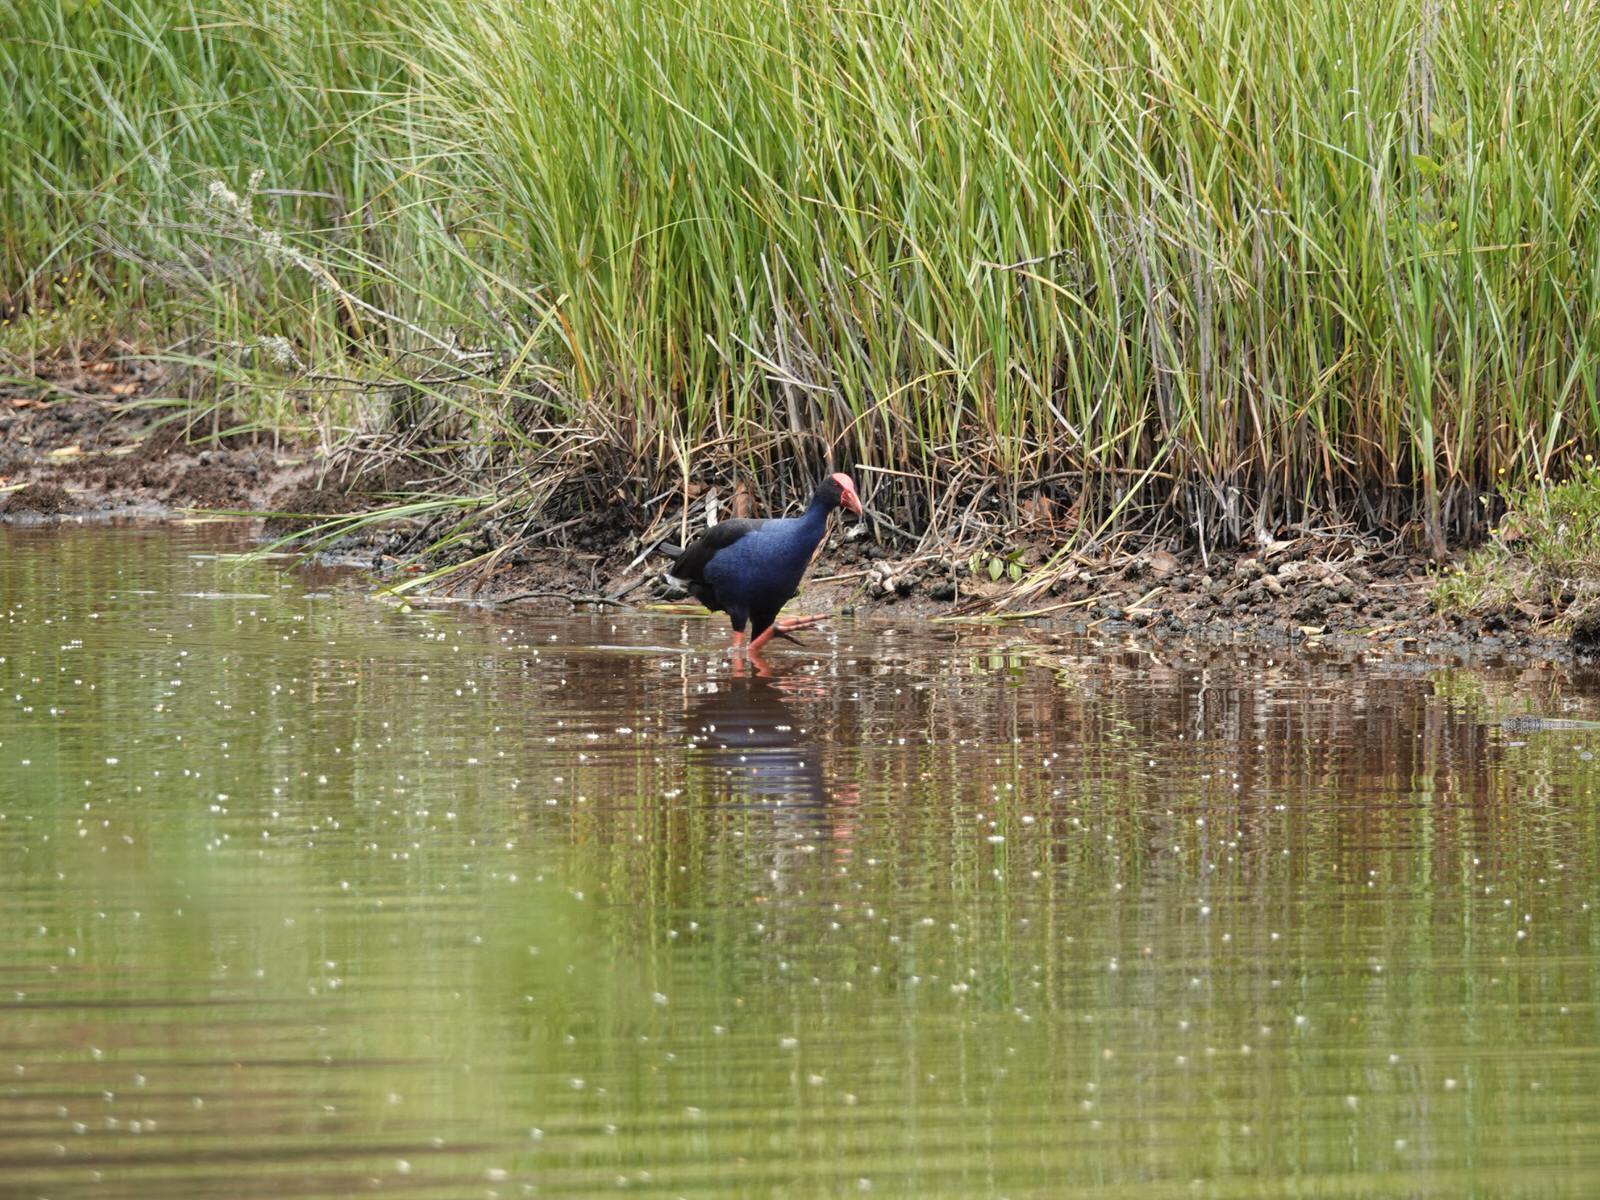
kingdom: Animalia
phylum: Chordata
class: Aves
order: Gruiformes
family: Rallidae
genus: Porphyrio
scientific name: Porphyrio melanotus
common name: Australasian swamphen
